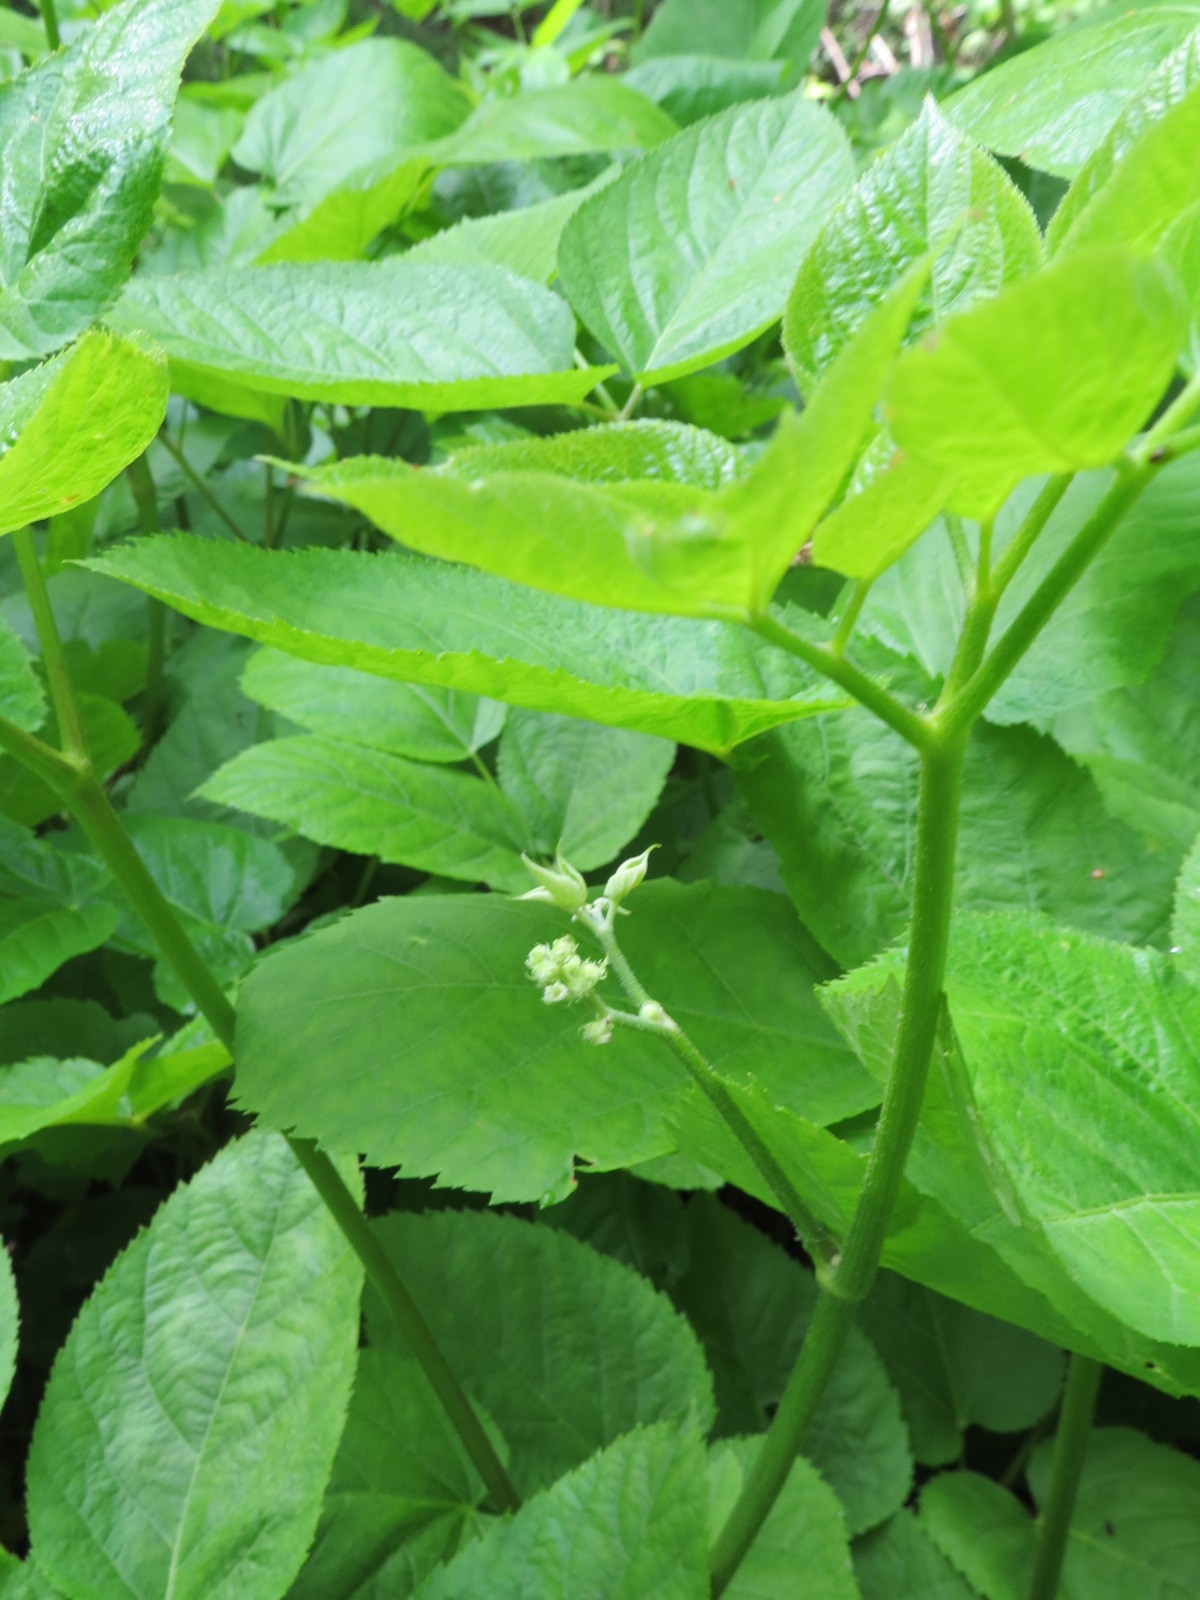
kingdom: Plantae
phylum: Tracheophyta
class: Magnoliopsida
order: Apiales
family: Araliaceae
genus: Aralia
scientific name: Aralia californica
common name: California-ginseng
